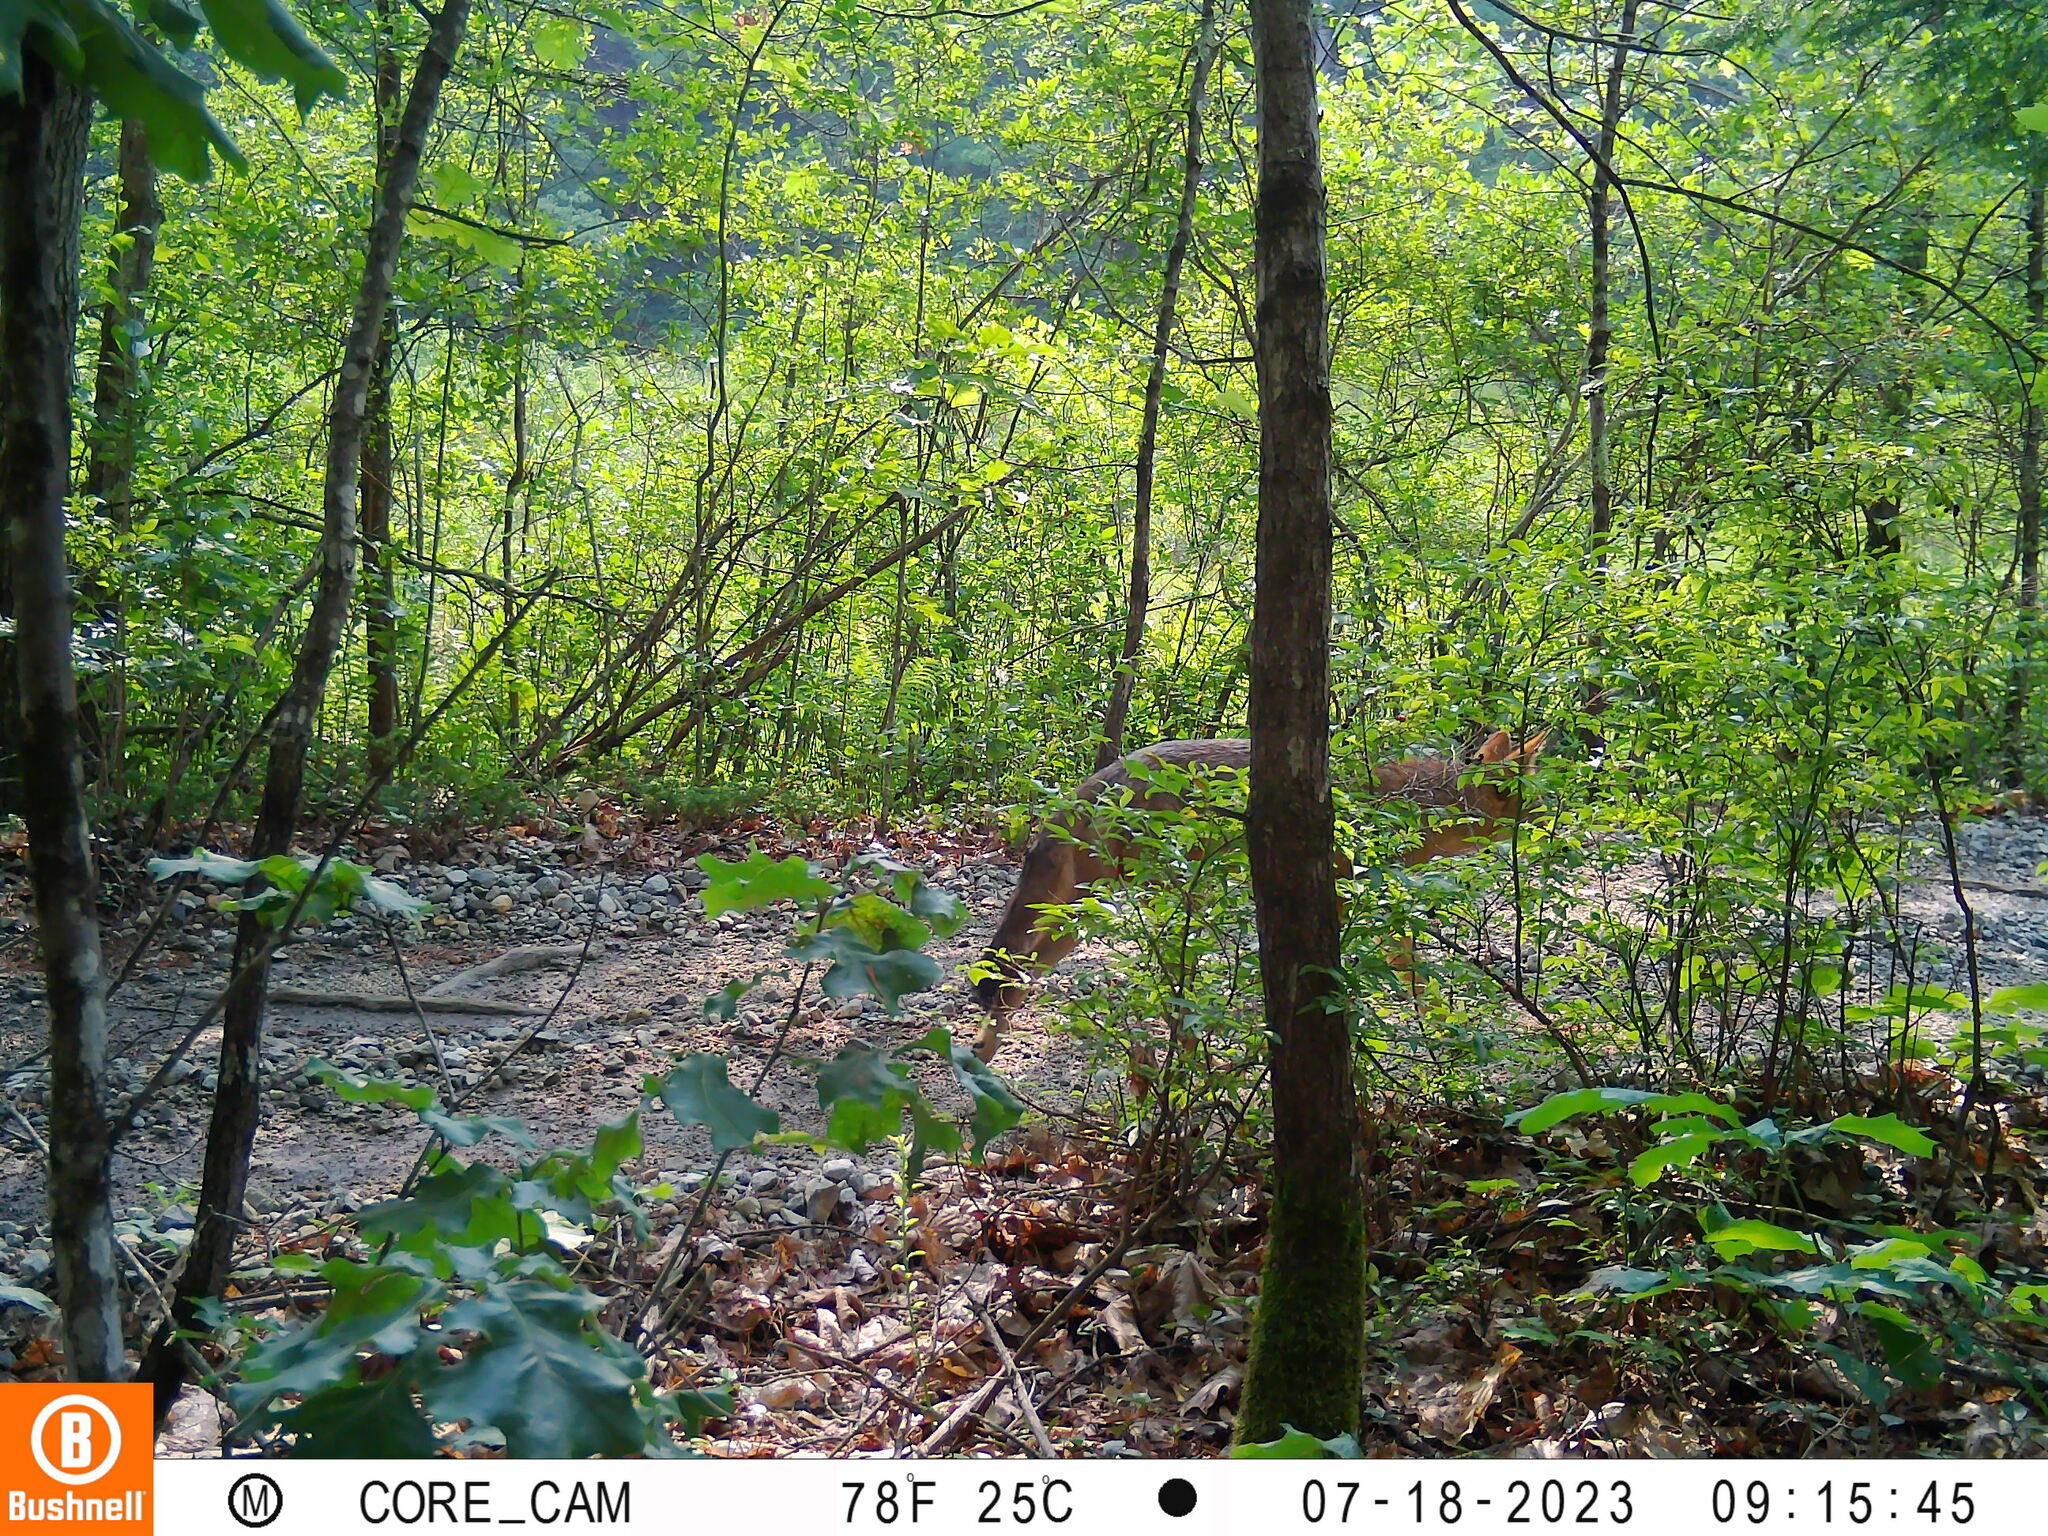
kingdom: Animalia
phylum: Chordata
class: Mammalia
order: Carnivora
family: Canidae
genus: Canis
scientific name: Canis latrans
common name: Coyote
